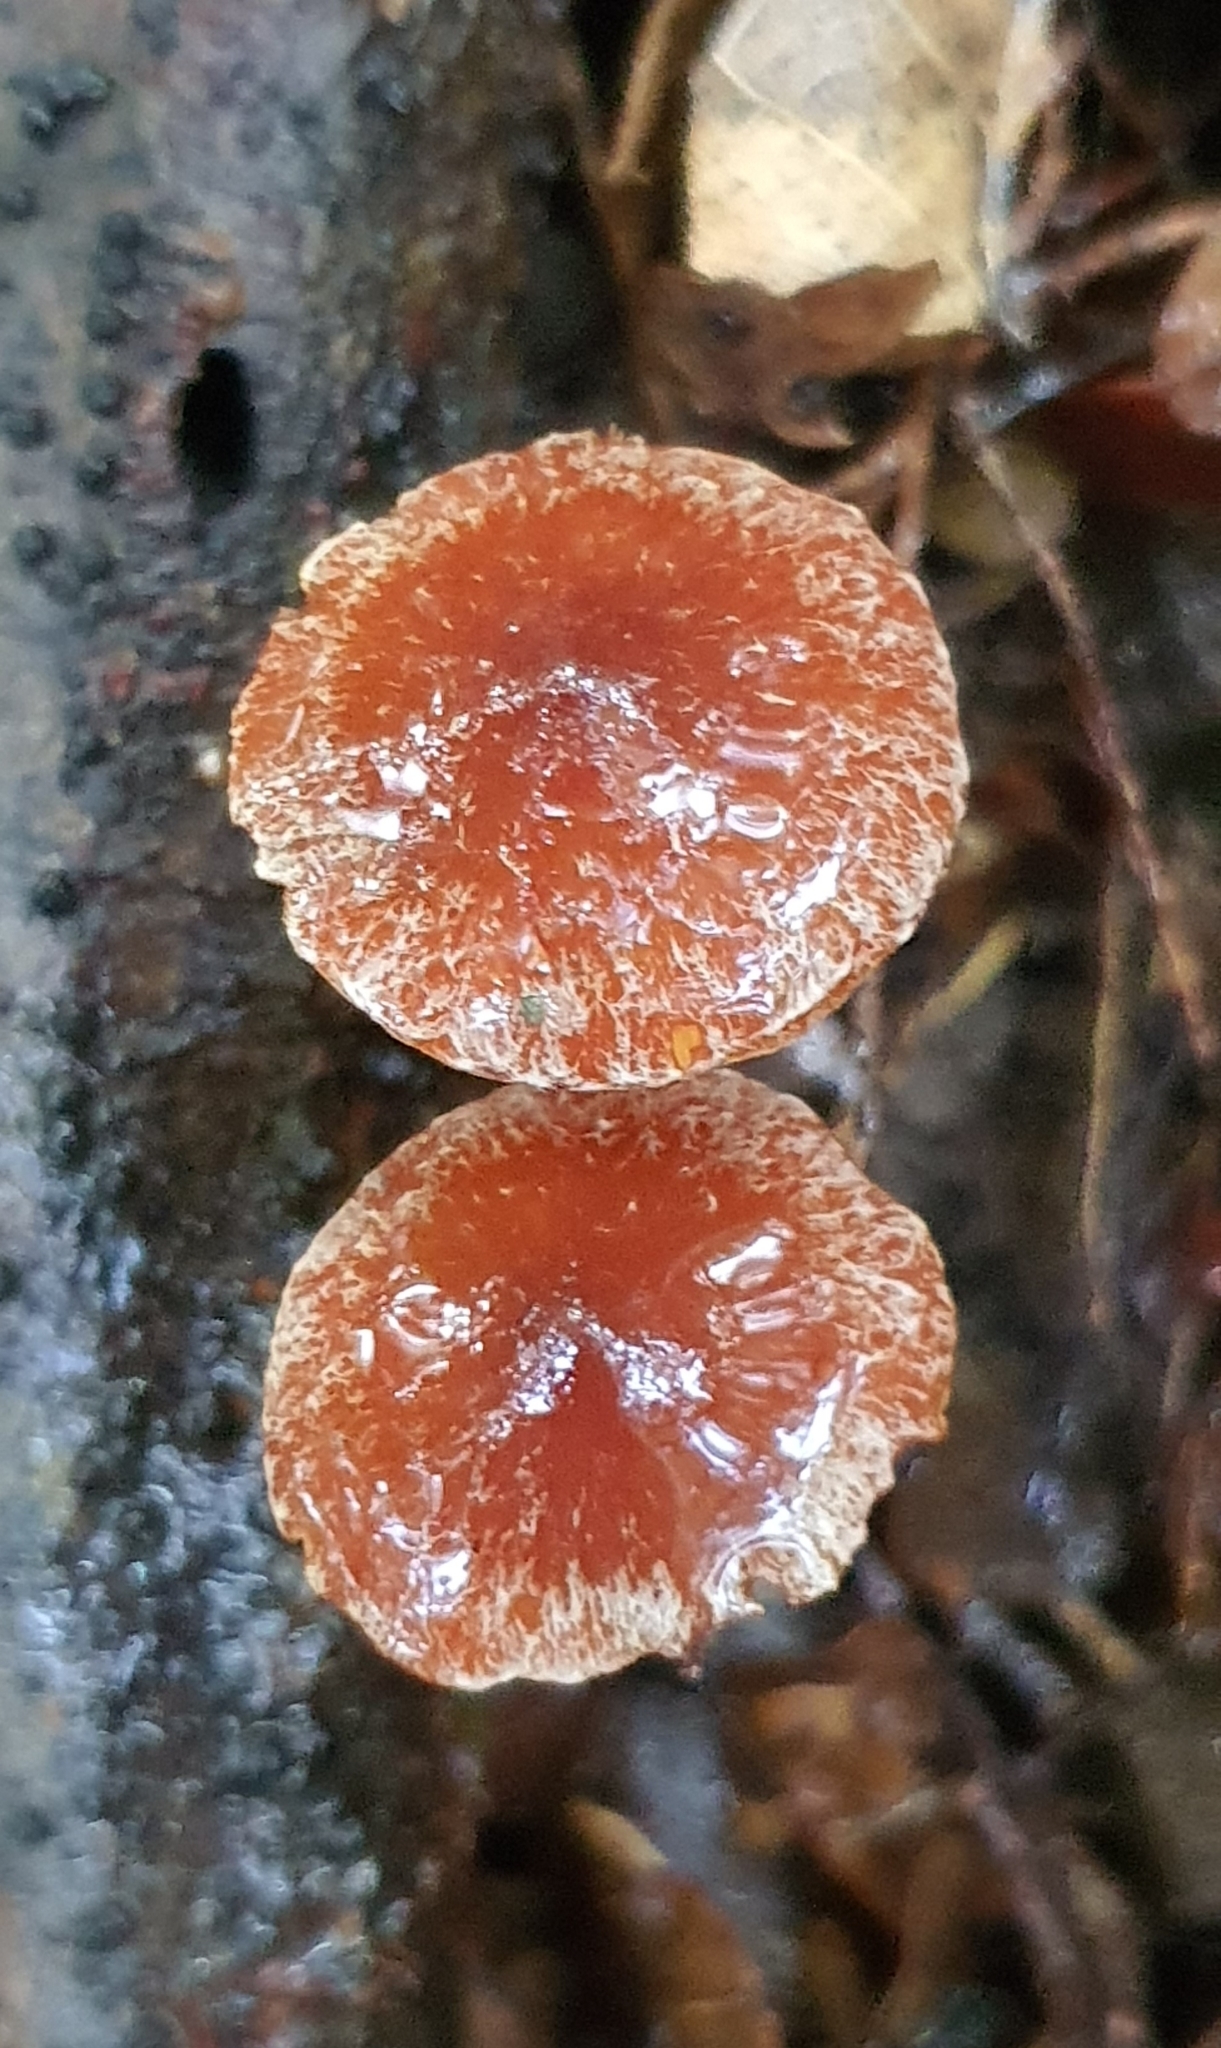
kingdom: Fungi
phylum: Basidiomycota
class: Agaricomycetes
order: Agaricales
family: Strophariaceae
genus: Leratiomyces
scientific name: Leratiomyces ceres
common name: Redlead roundhead
